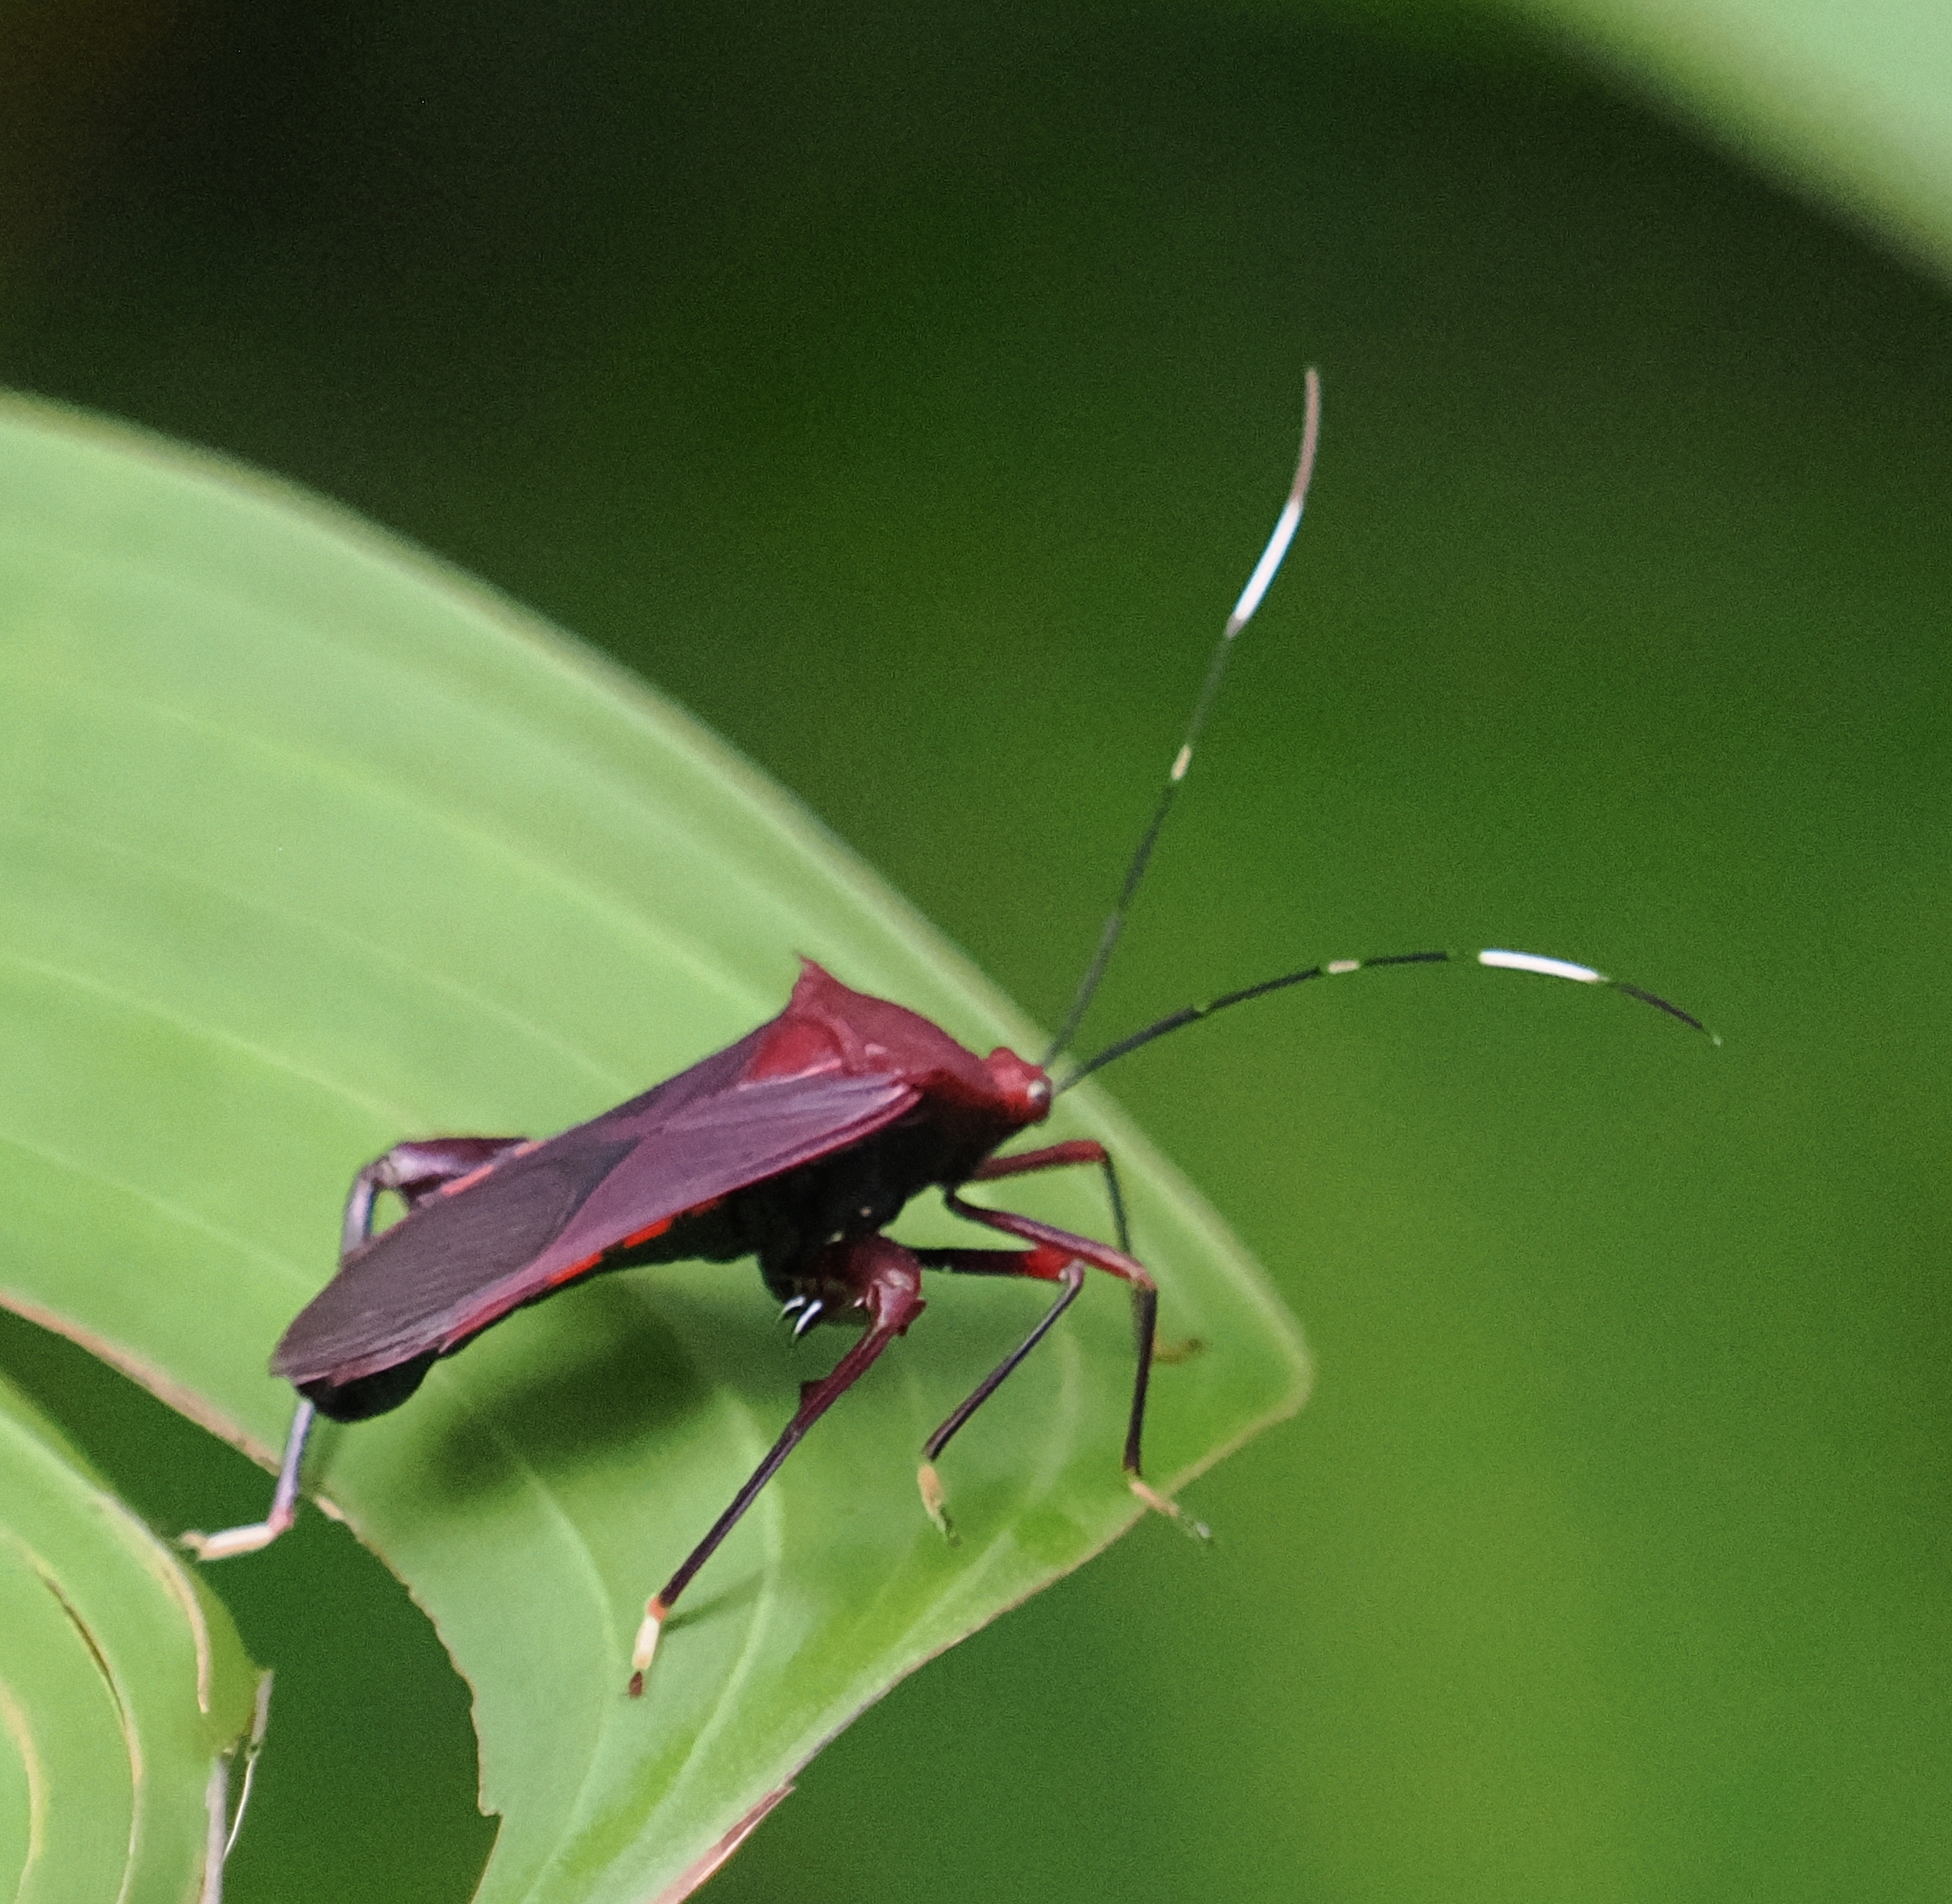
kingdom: Animalia
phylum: Arthropoda
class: Insecta
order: Hemiptera
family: Coreidae
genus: Nematopus
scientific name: Nematopus cribratus
